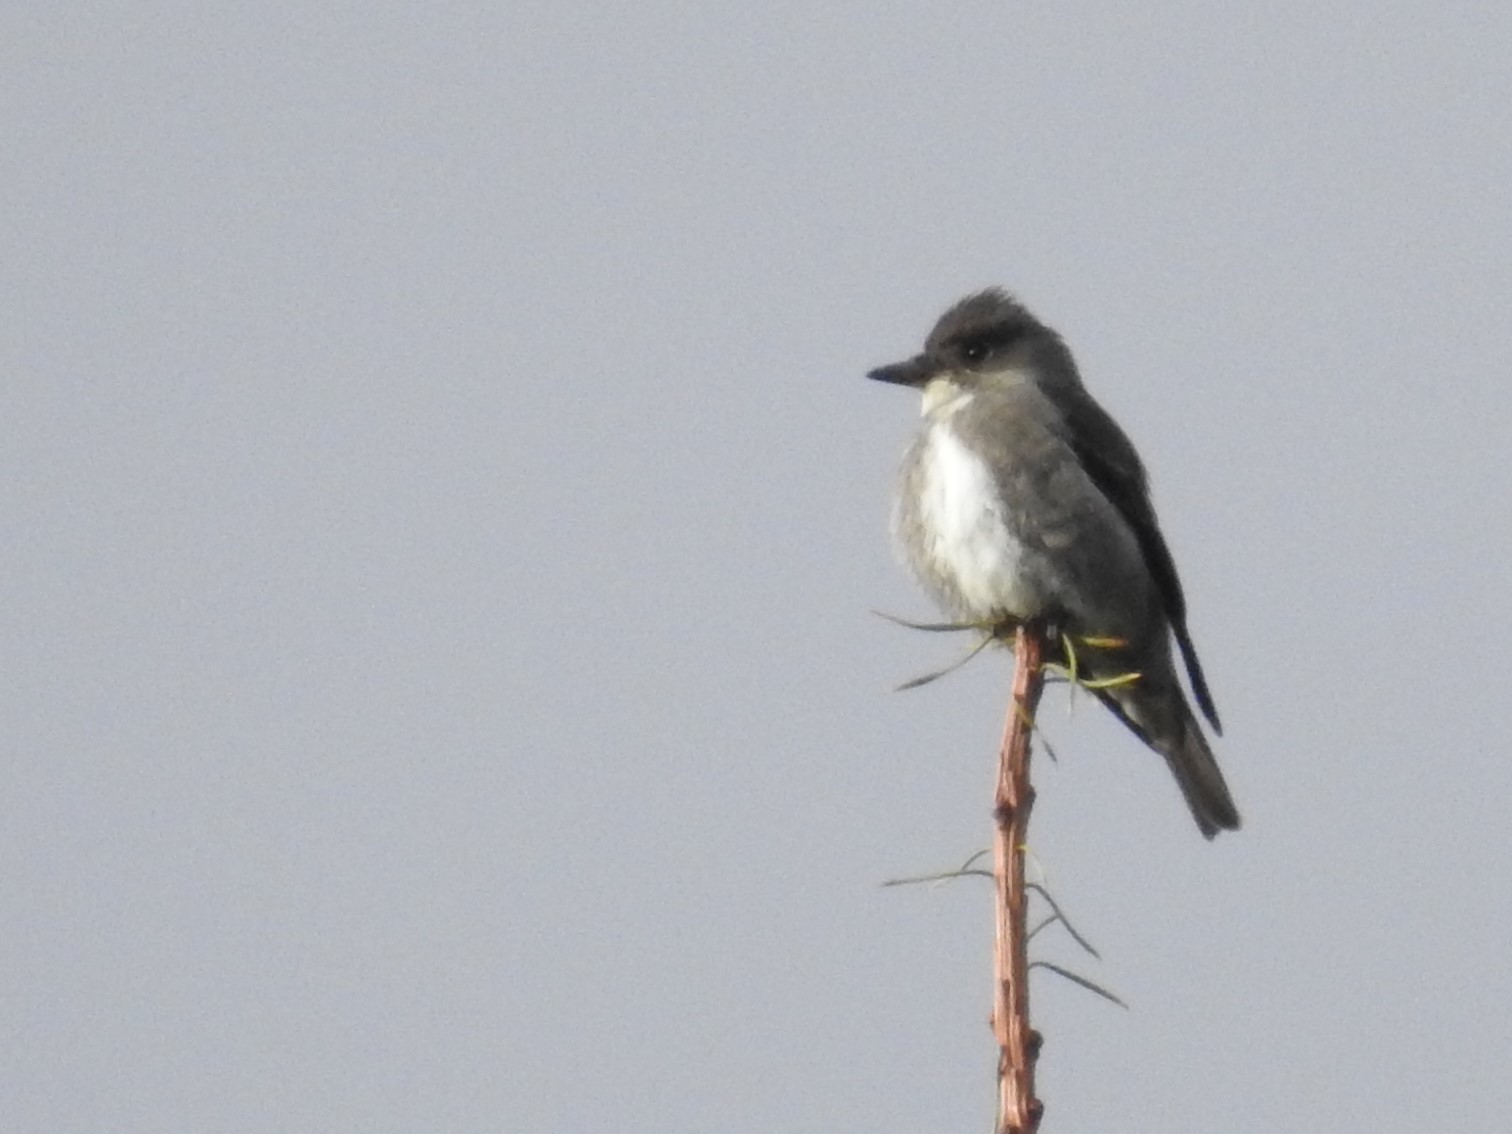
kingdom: Animalia
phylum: Chordata
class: Aves
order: Passeriformes
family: Tyrannidae
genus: Contopus
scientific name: Contopus cooperi
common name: Olive-sided flycatcher
